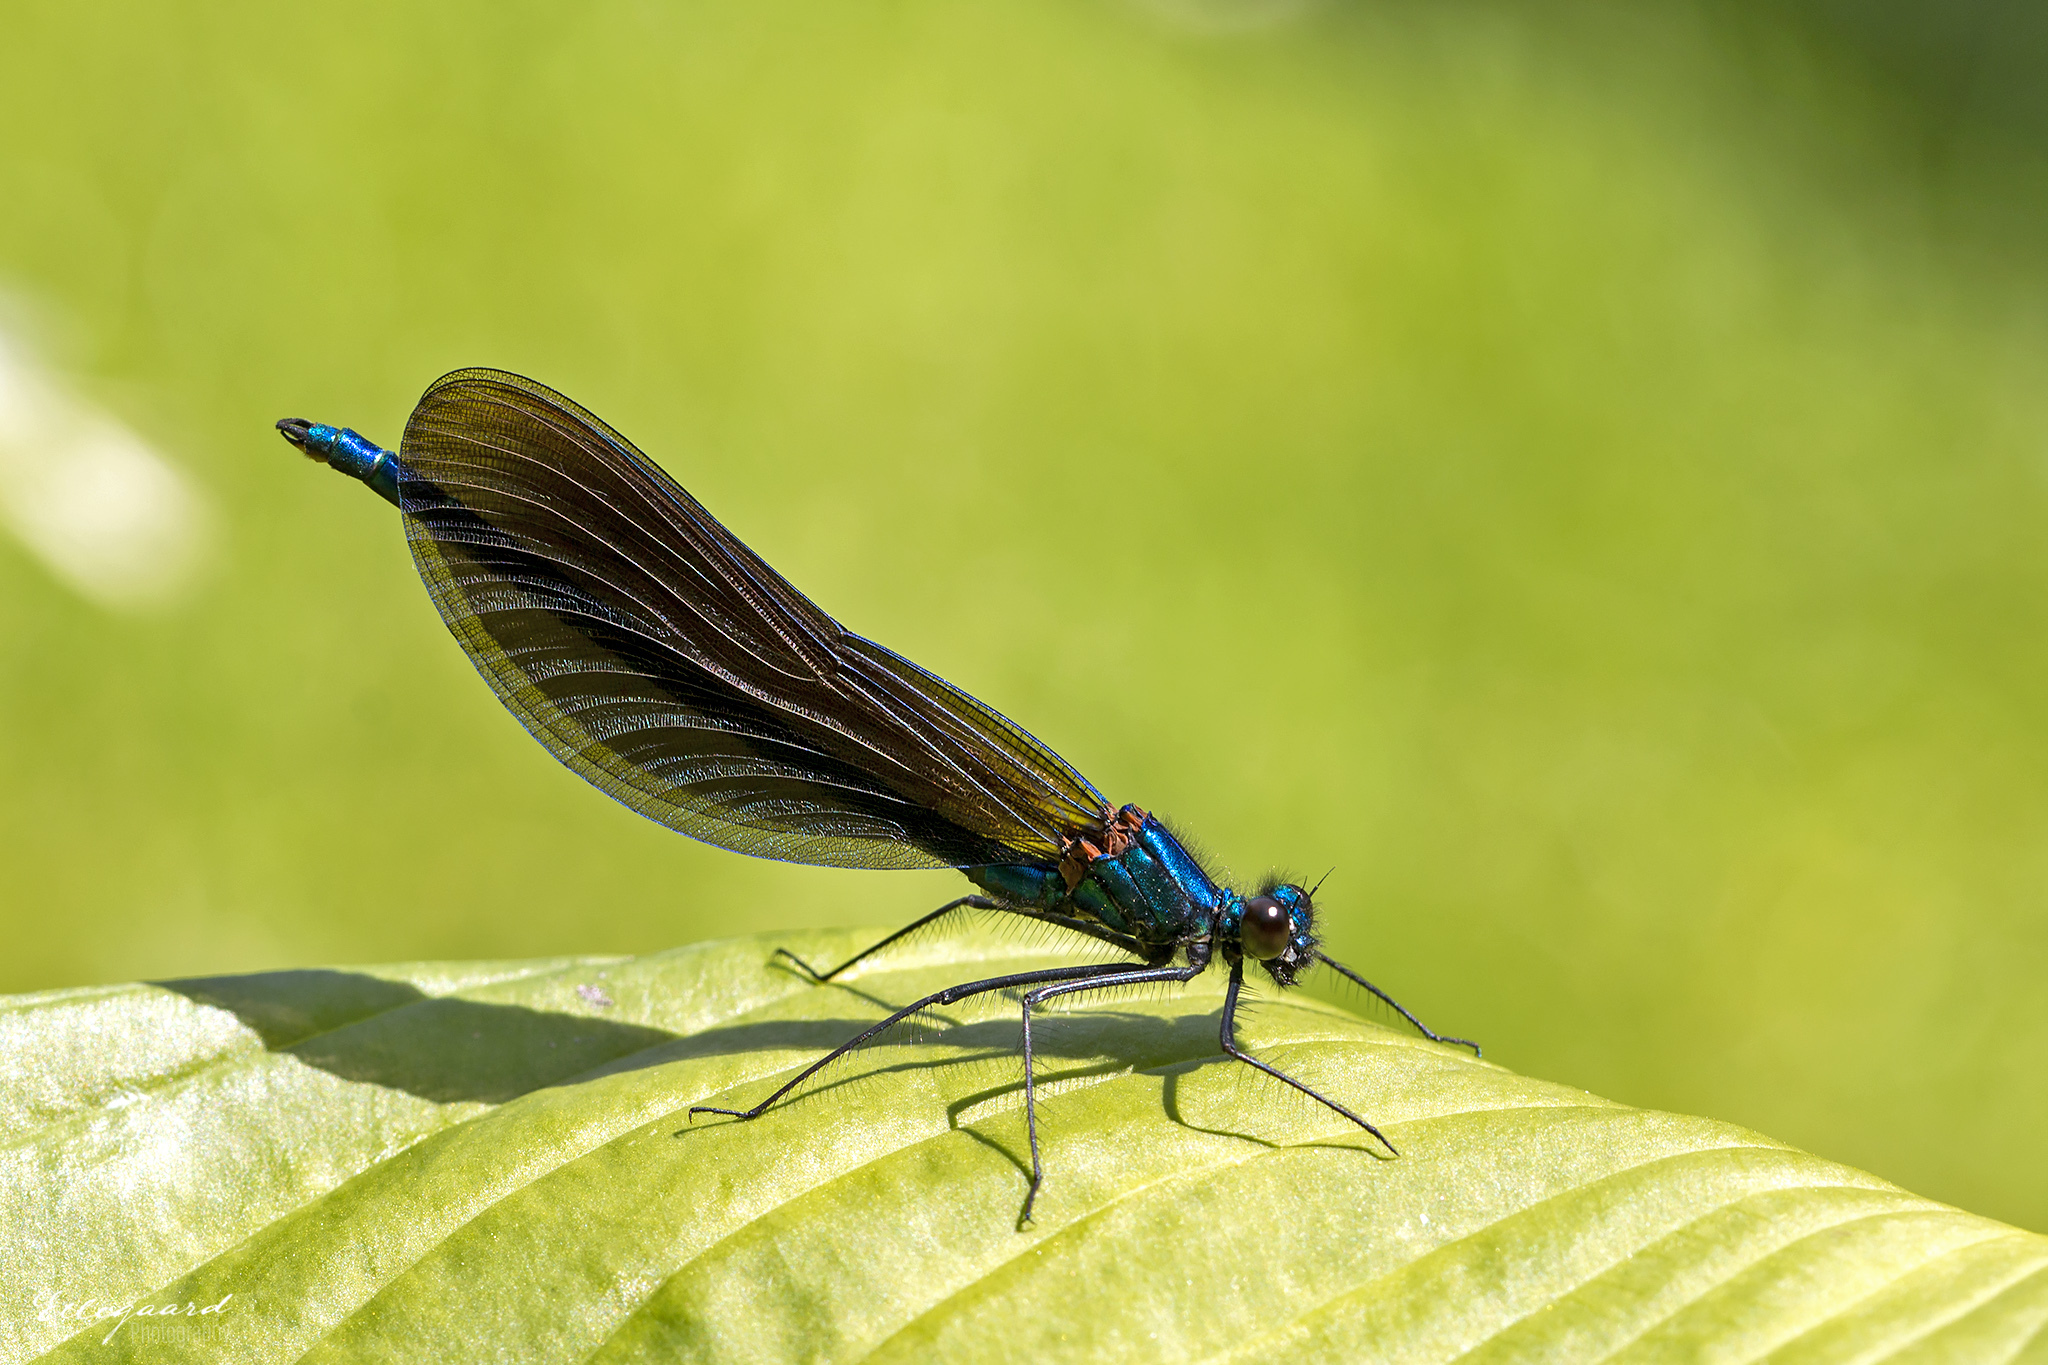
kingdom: Animalia
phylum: Arthropoda
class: Insecta
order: Odonata
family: Calopterygidae
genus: Calopteryx
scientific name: Calopteryx virgo
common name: Beautiful demoiselle
